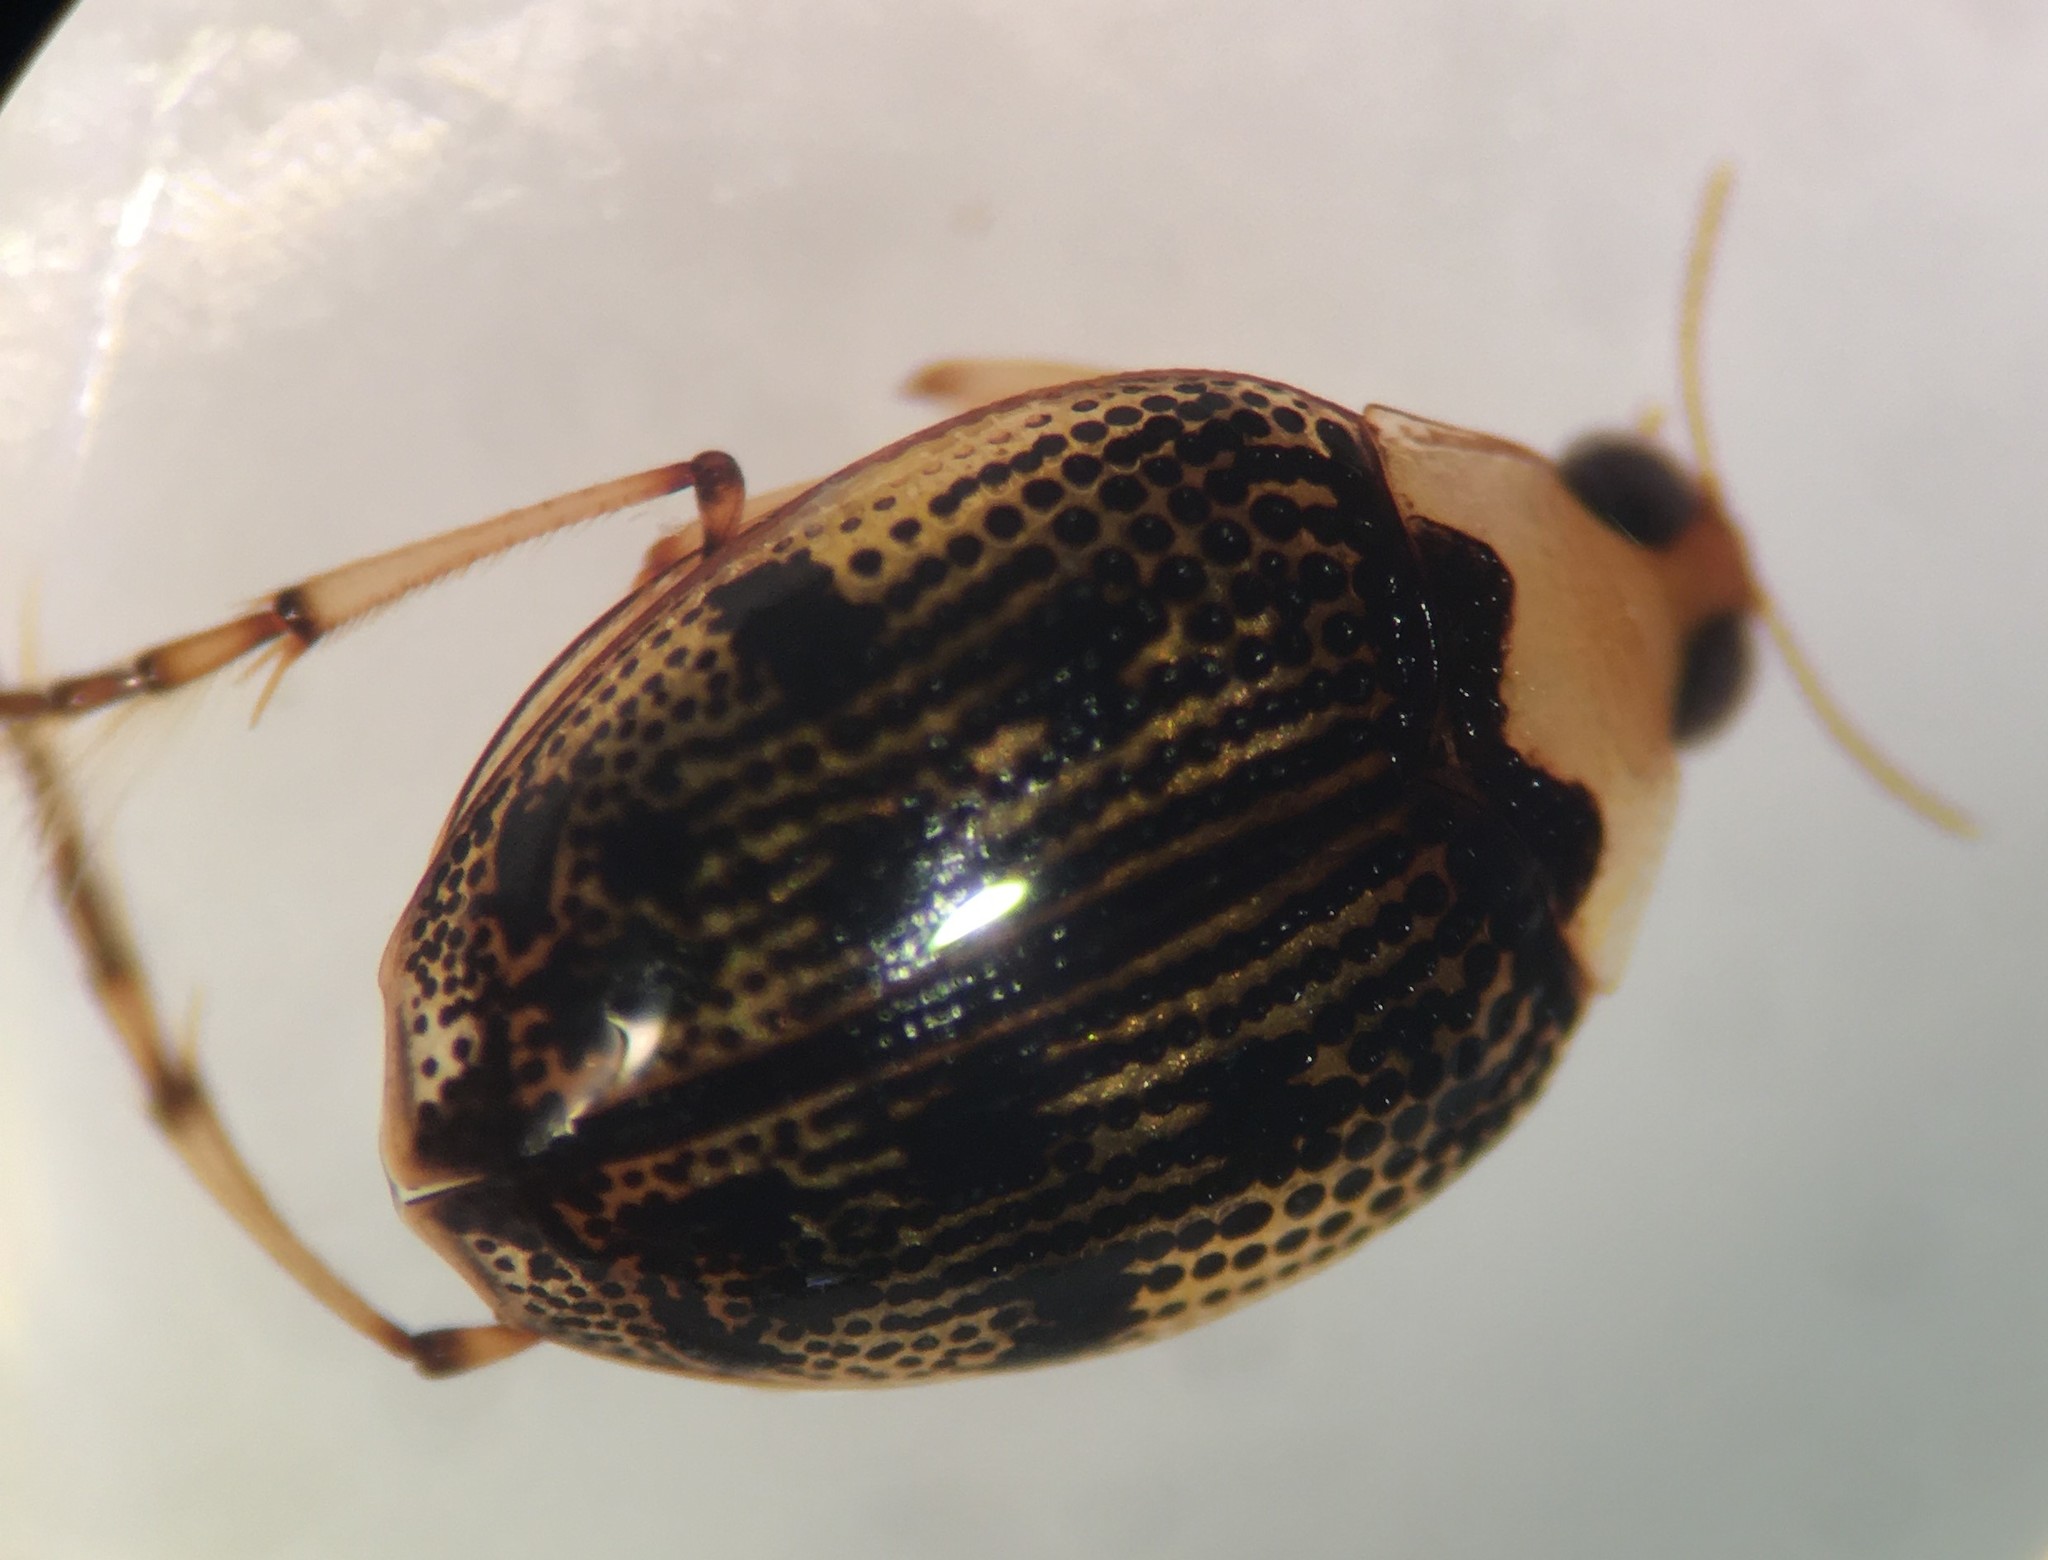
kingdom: Animalia
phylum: Arthropoda
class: Insecta
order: Coleoptera
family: Haliplidae
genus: Peltodytes
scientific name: Peltodytes dietrichi
